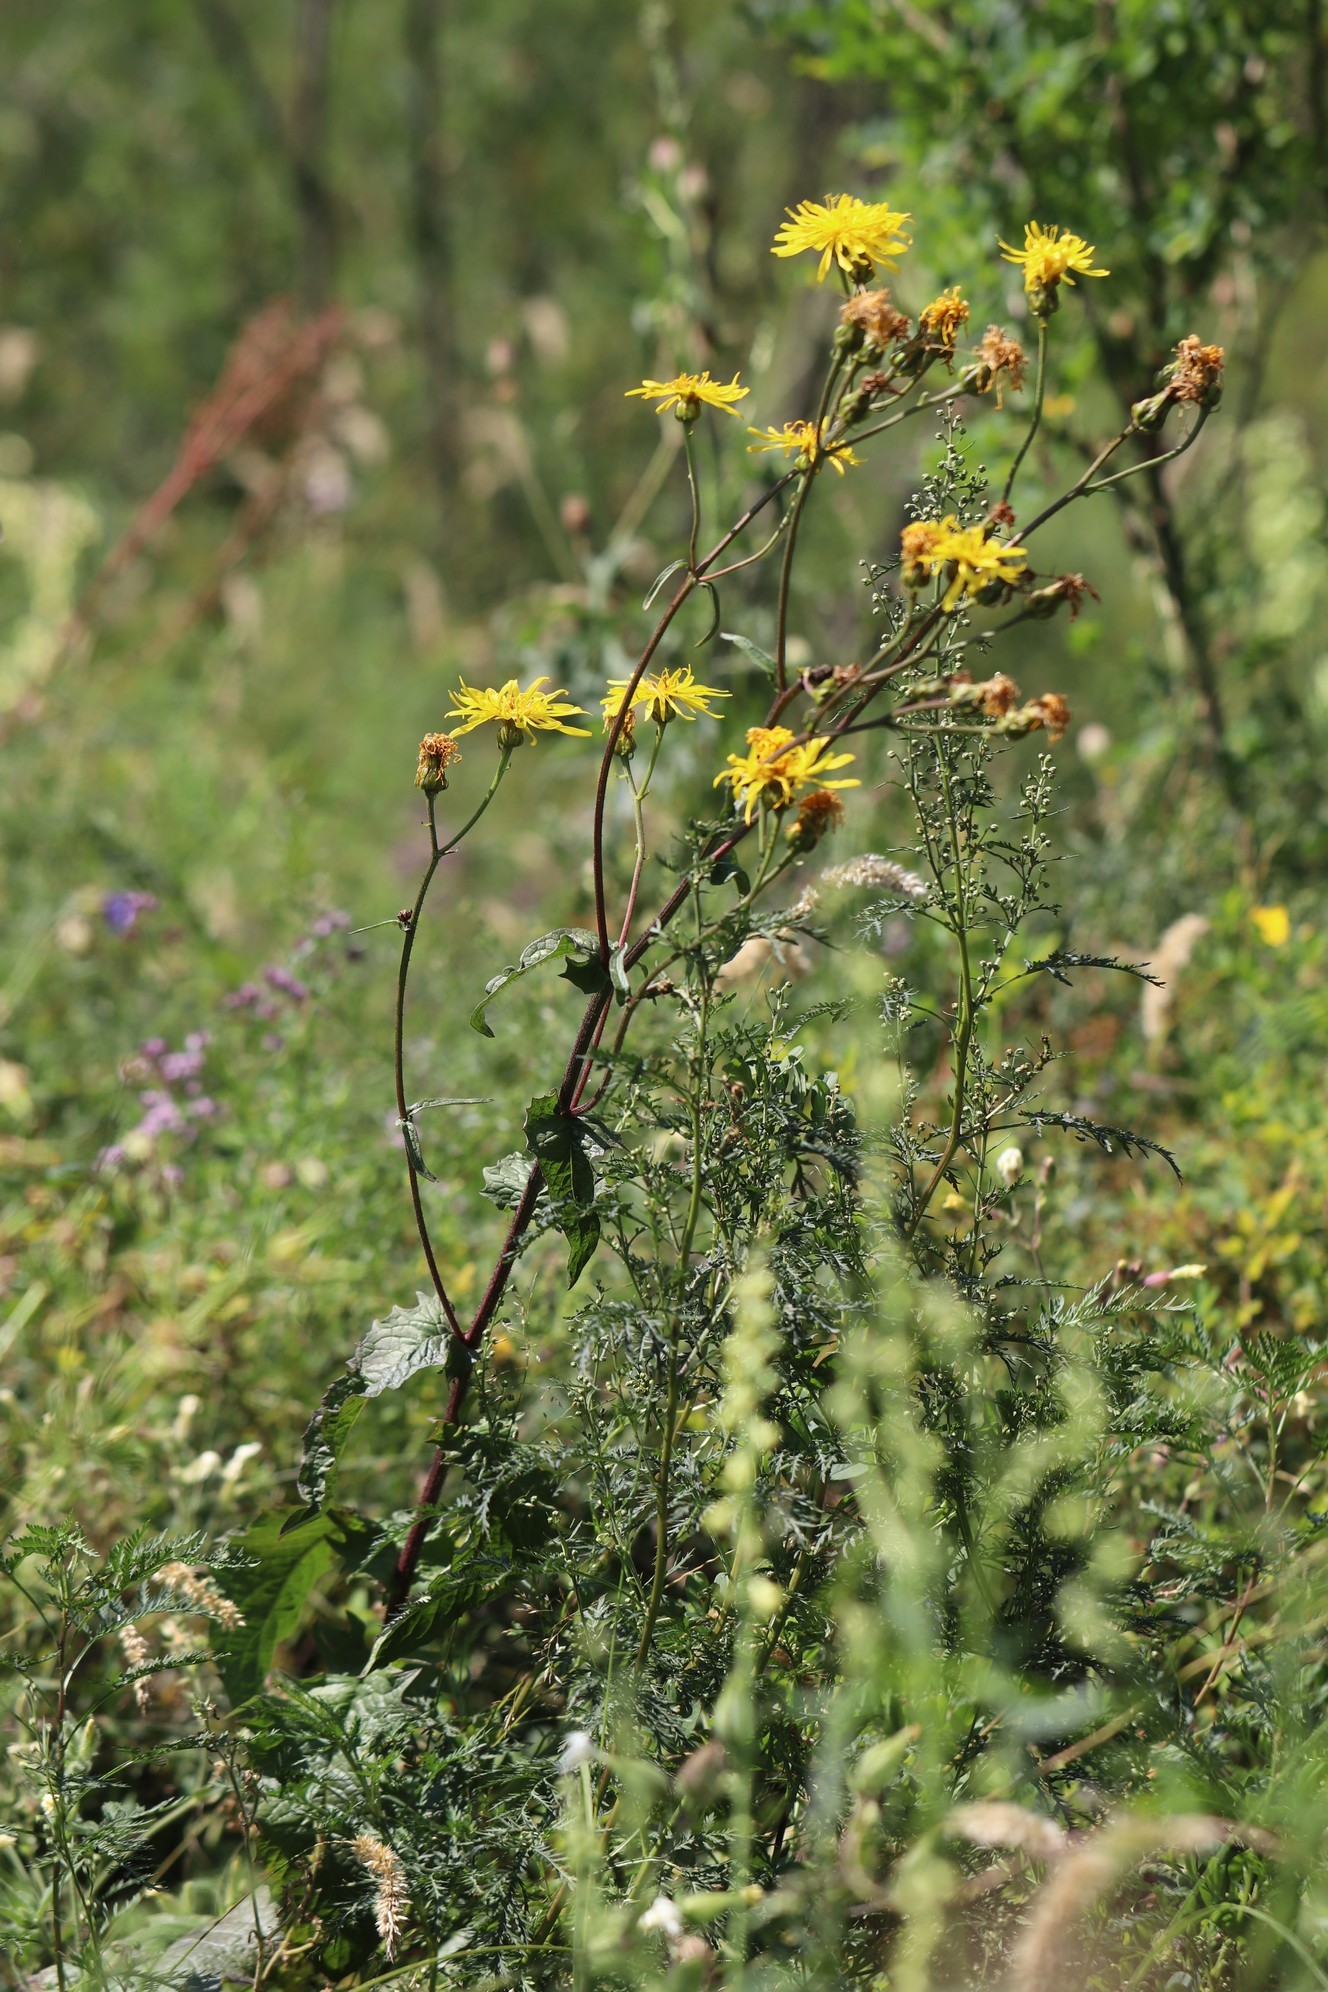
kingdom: Plantae
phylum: Tracheophyta
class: Magnoliopsida
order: Asterales
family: Asteraceae
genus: Crepis
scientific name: Crepis sibirica
